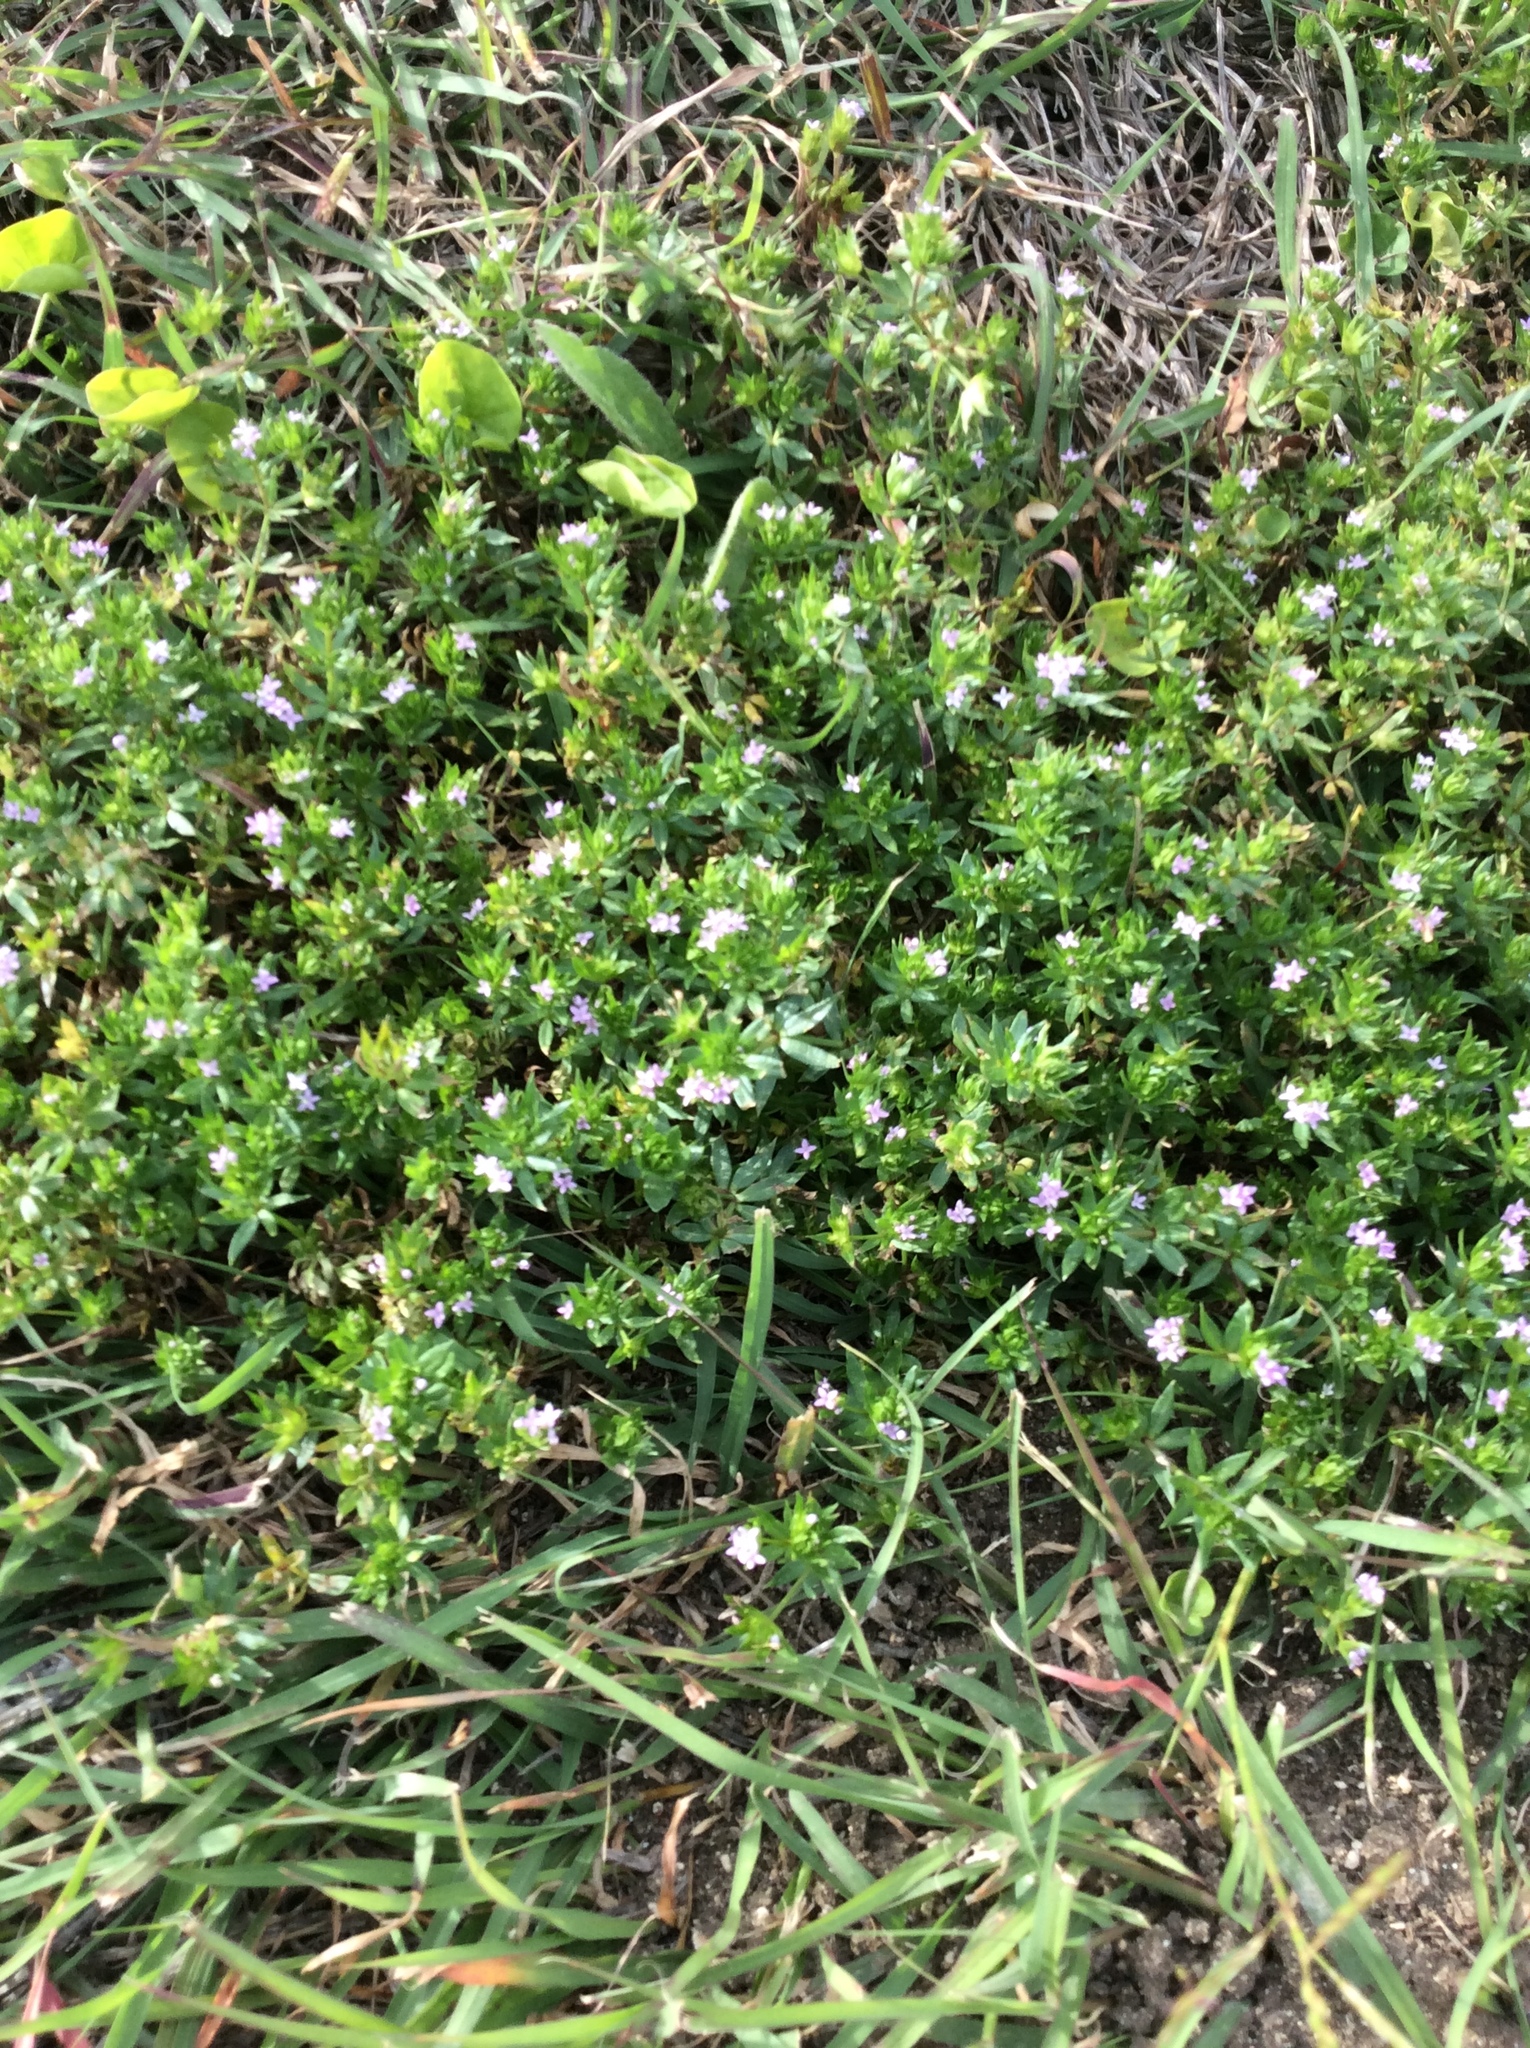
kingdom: Plantae
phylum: Tracheophyta
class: Magnoliopsida
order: Gentianales
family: Rubiaceae
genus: Sherardia
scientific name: Sherardia arvensis
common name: Field madder
